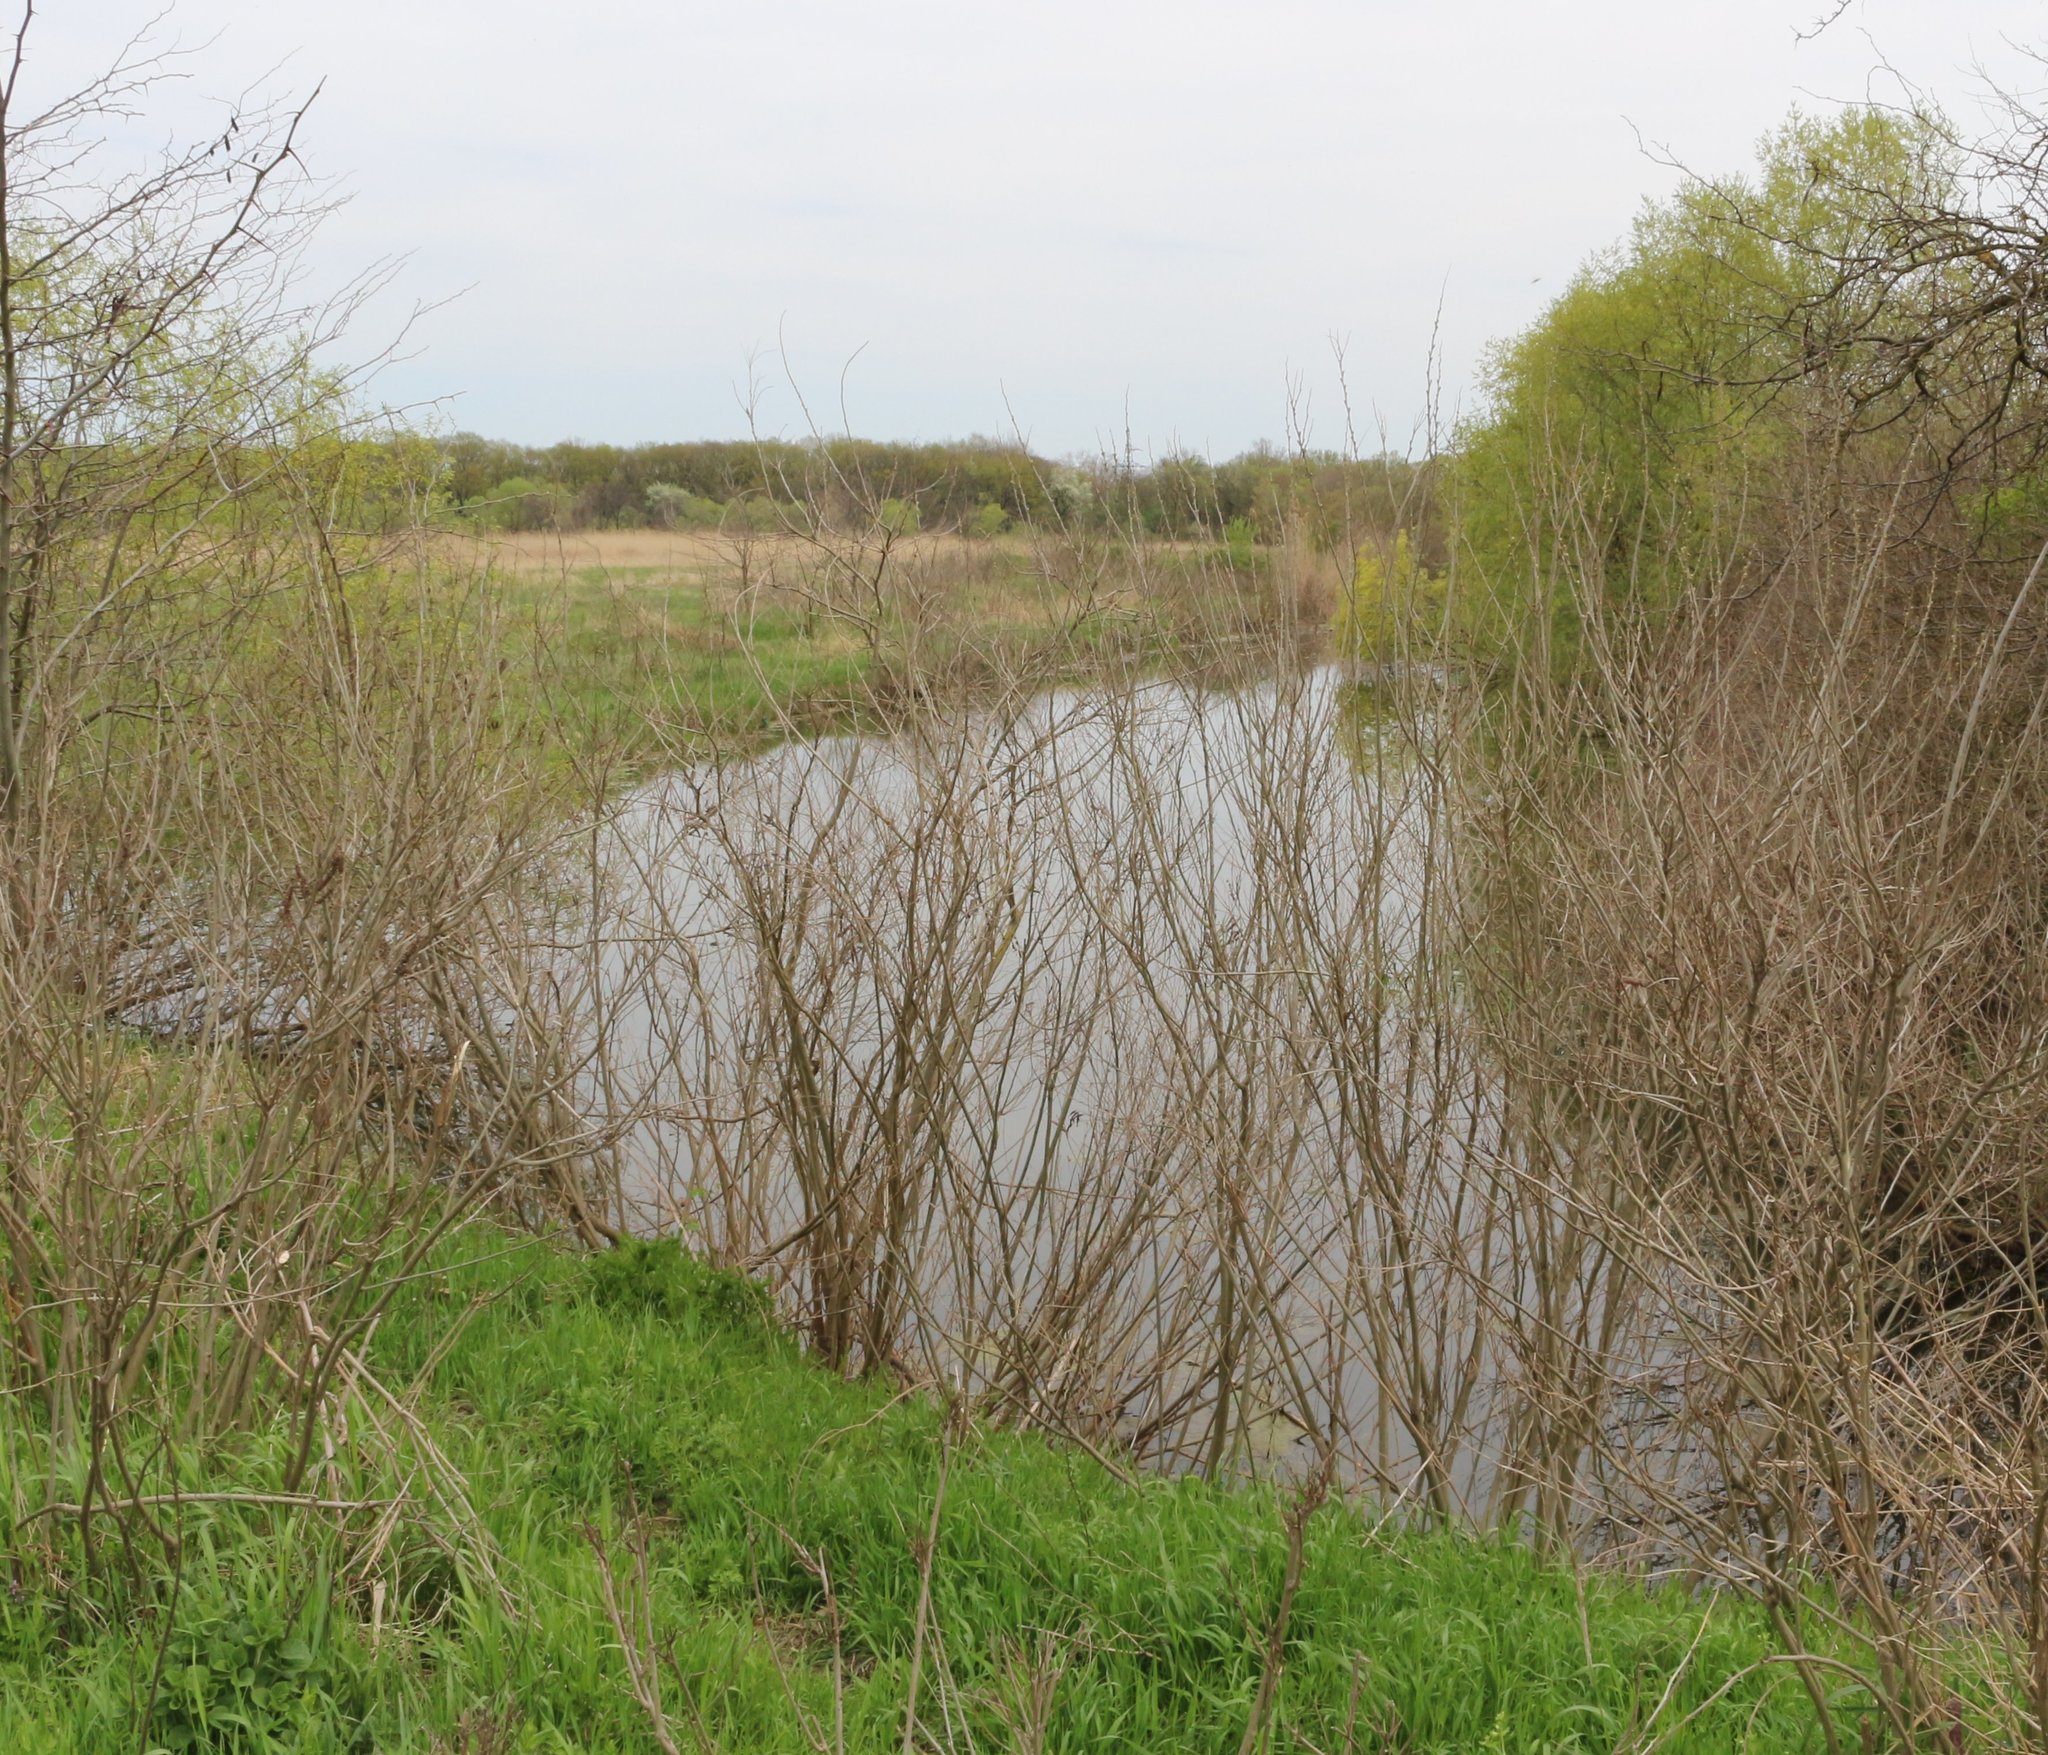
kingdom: Plantae
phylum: Tracheophyta
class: Magnoliopsida
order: Fabales
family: Fabaceae
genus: Amorpha
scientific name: Amorpha fruticosa
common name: False indigo
